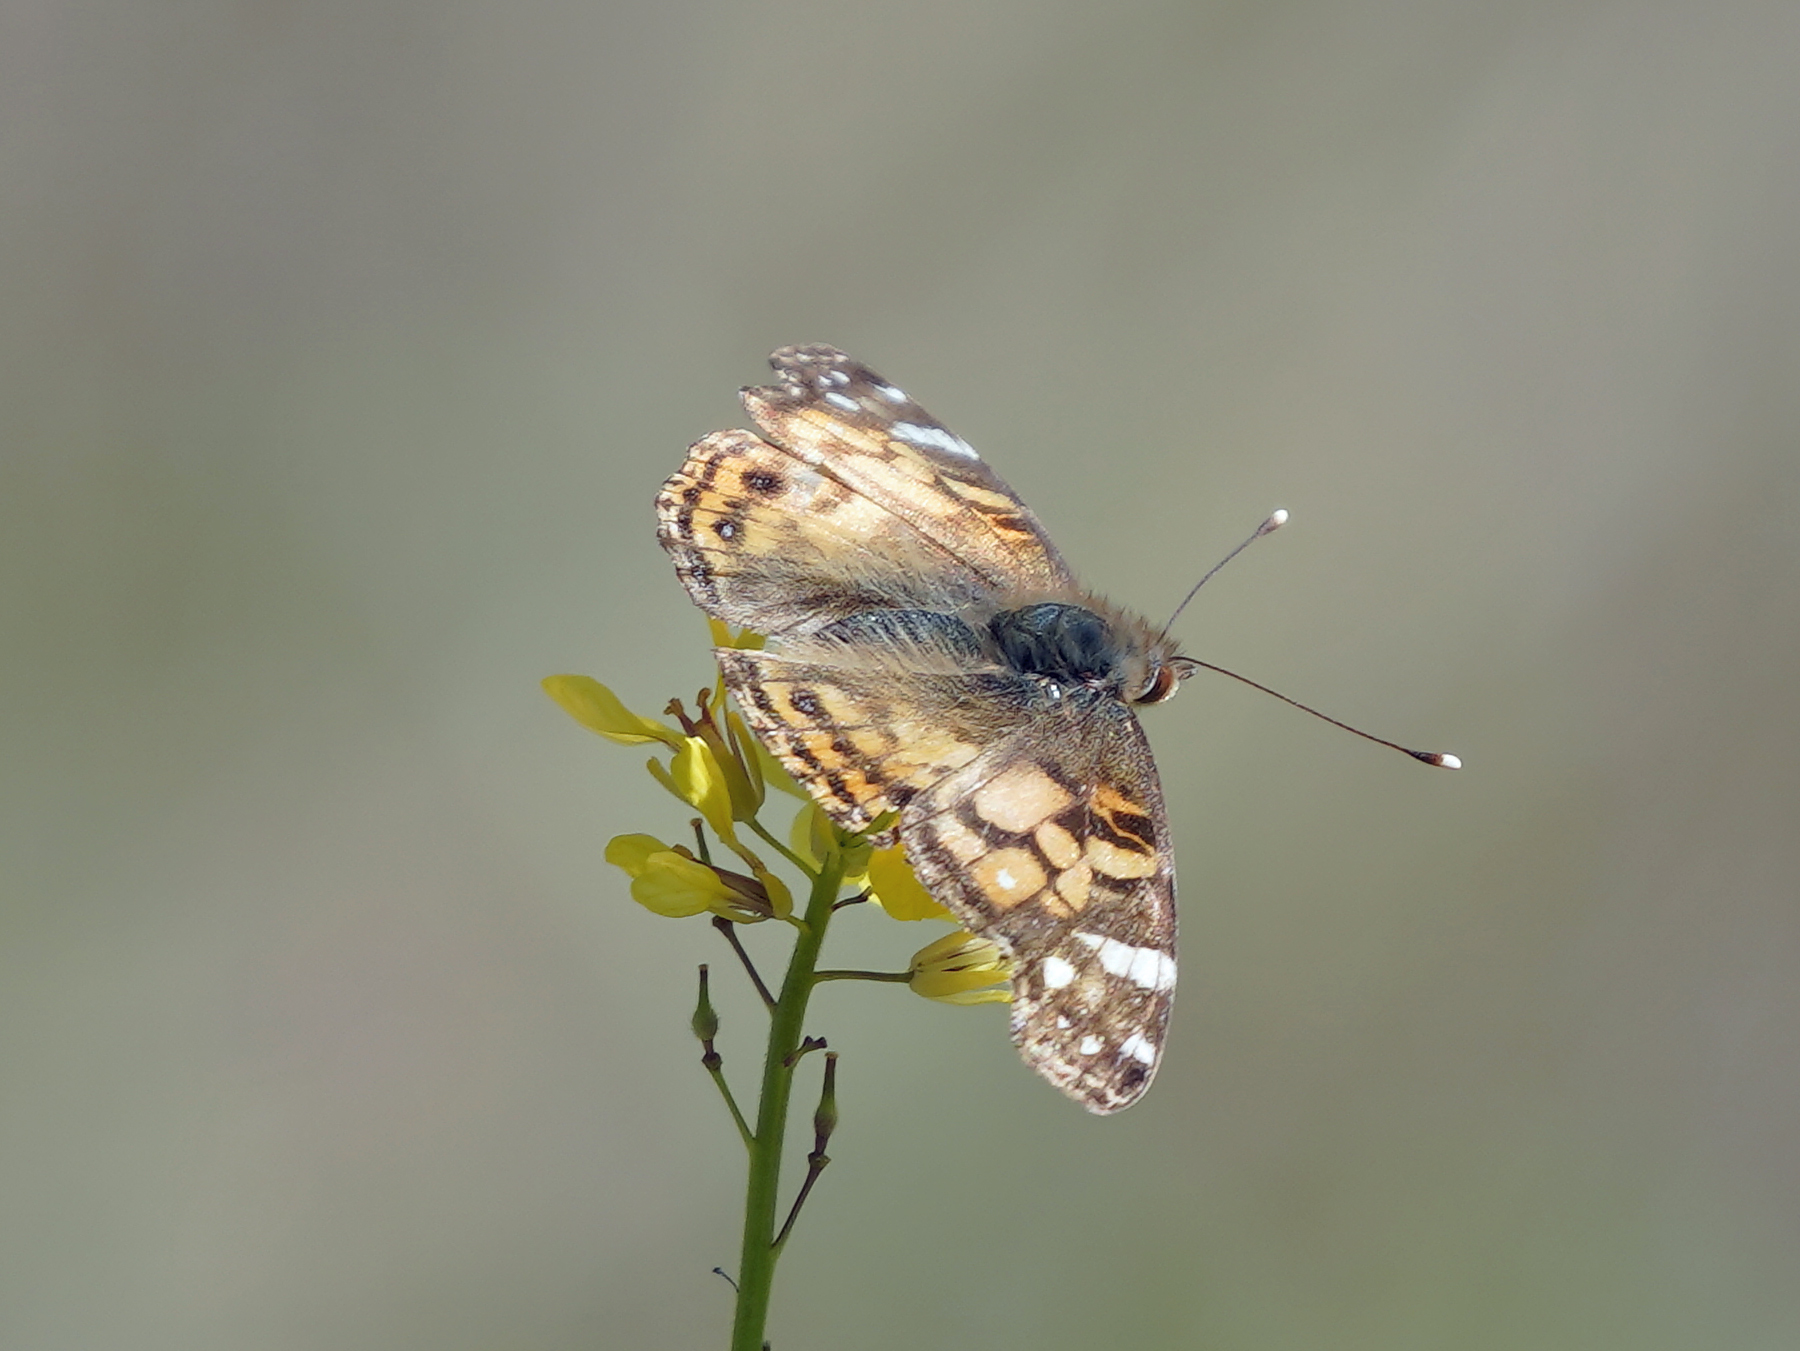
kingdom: Animalia
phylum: Arthropoda
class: Insecta
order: Lepidoptera
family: Nymphalidae
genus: Vanessa
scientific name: Vanessa virginiensis
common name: American lady
